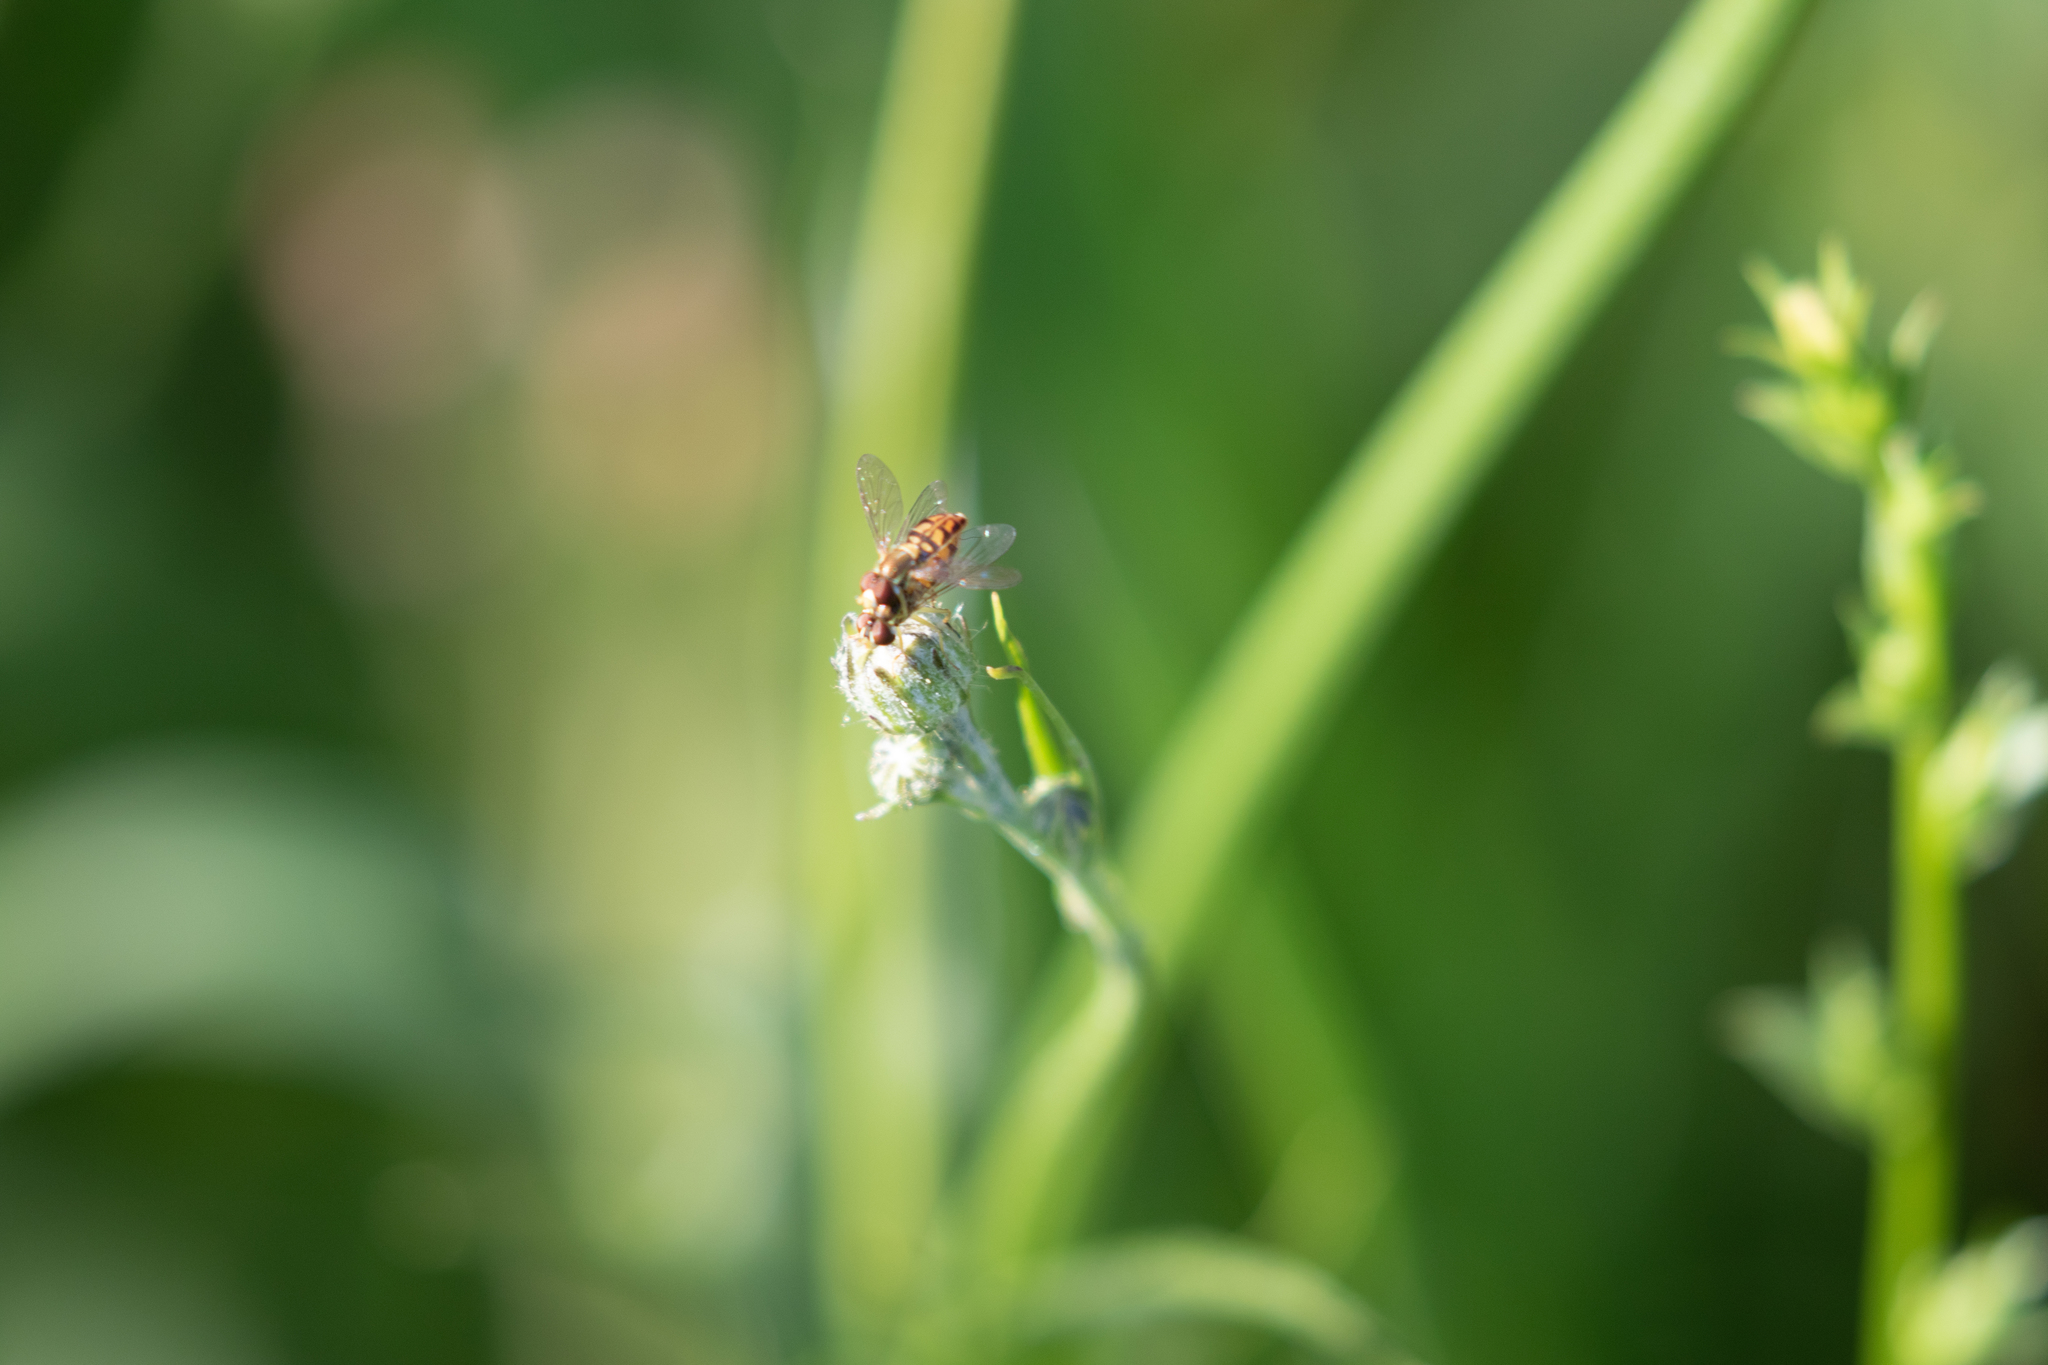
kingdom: Animalia
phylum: Arthropoda
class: Insecta
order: Diptera
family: Syrphidae
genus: Toxomerus
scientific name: Toxomerus marginatus
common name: Syrphid fly
